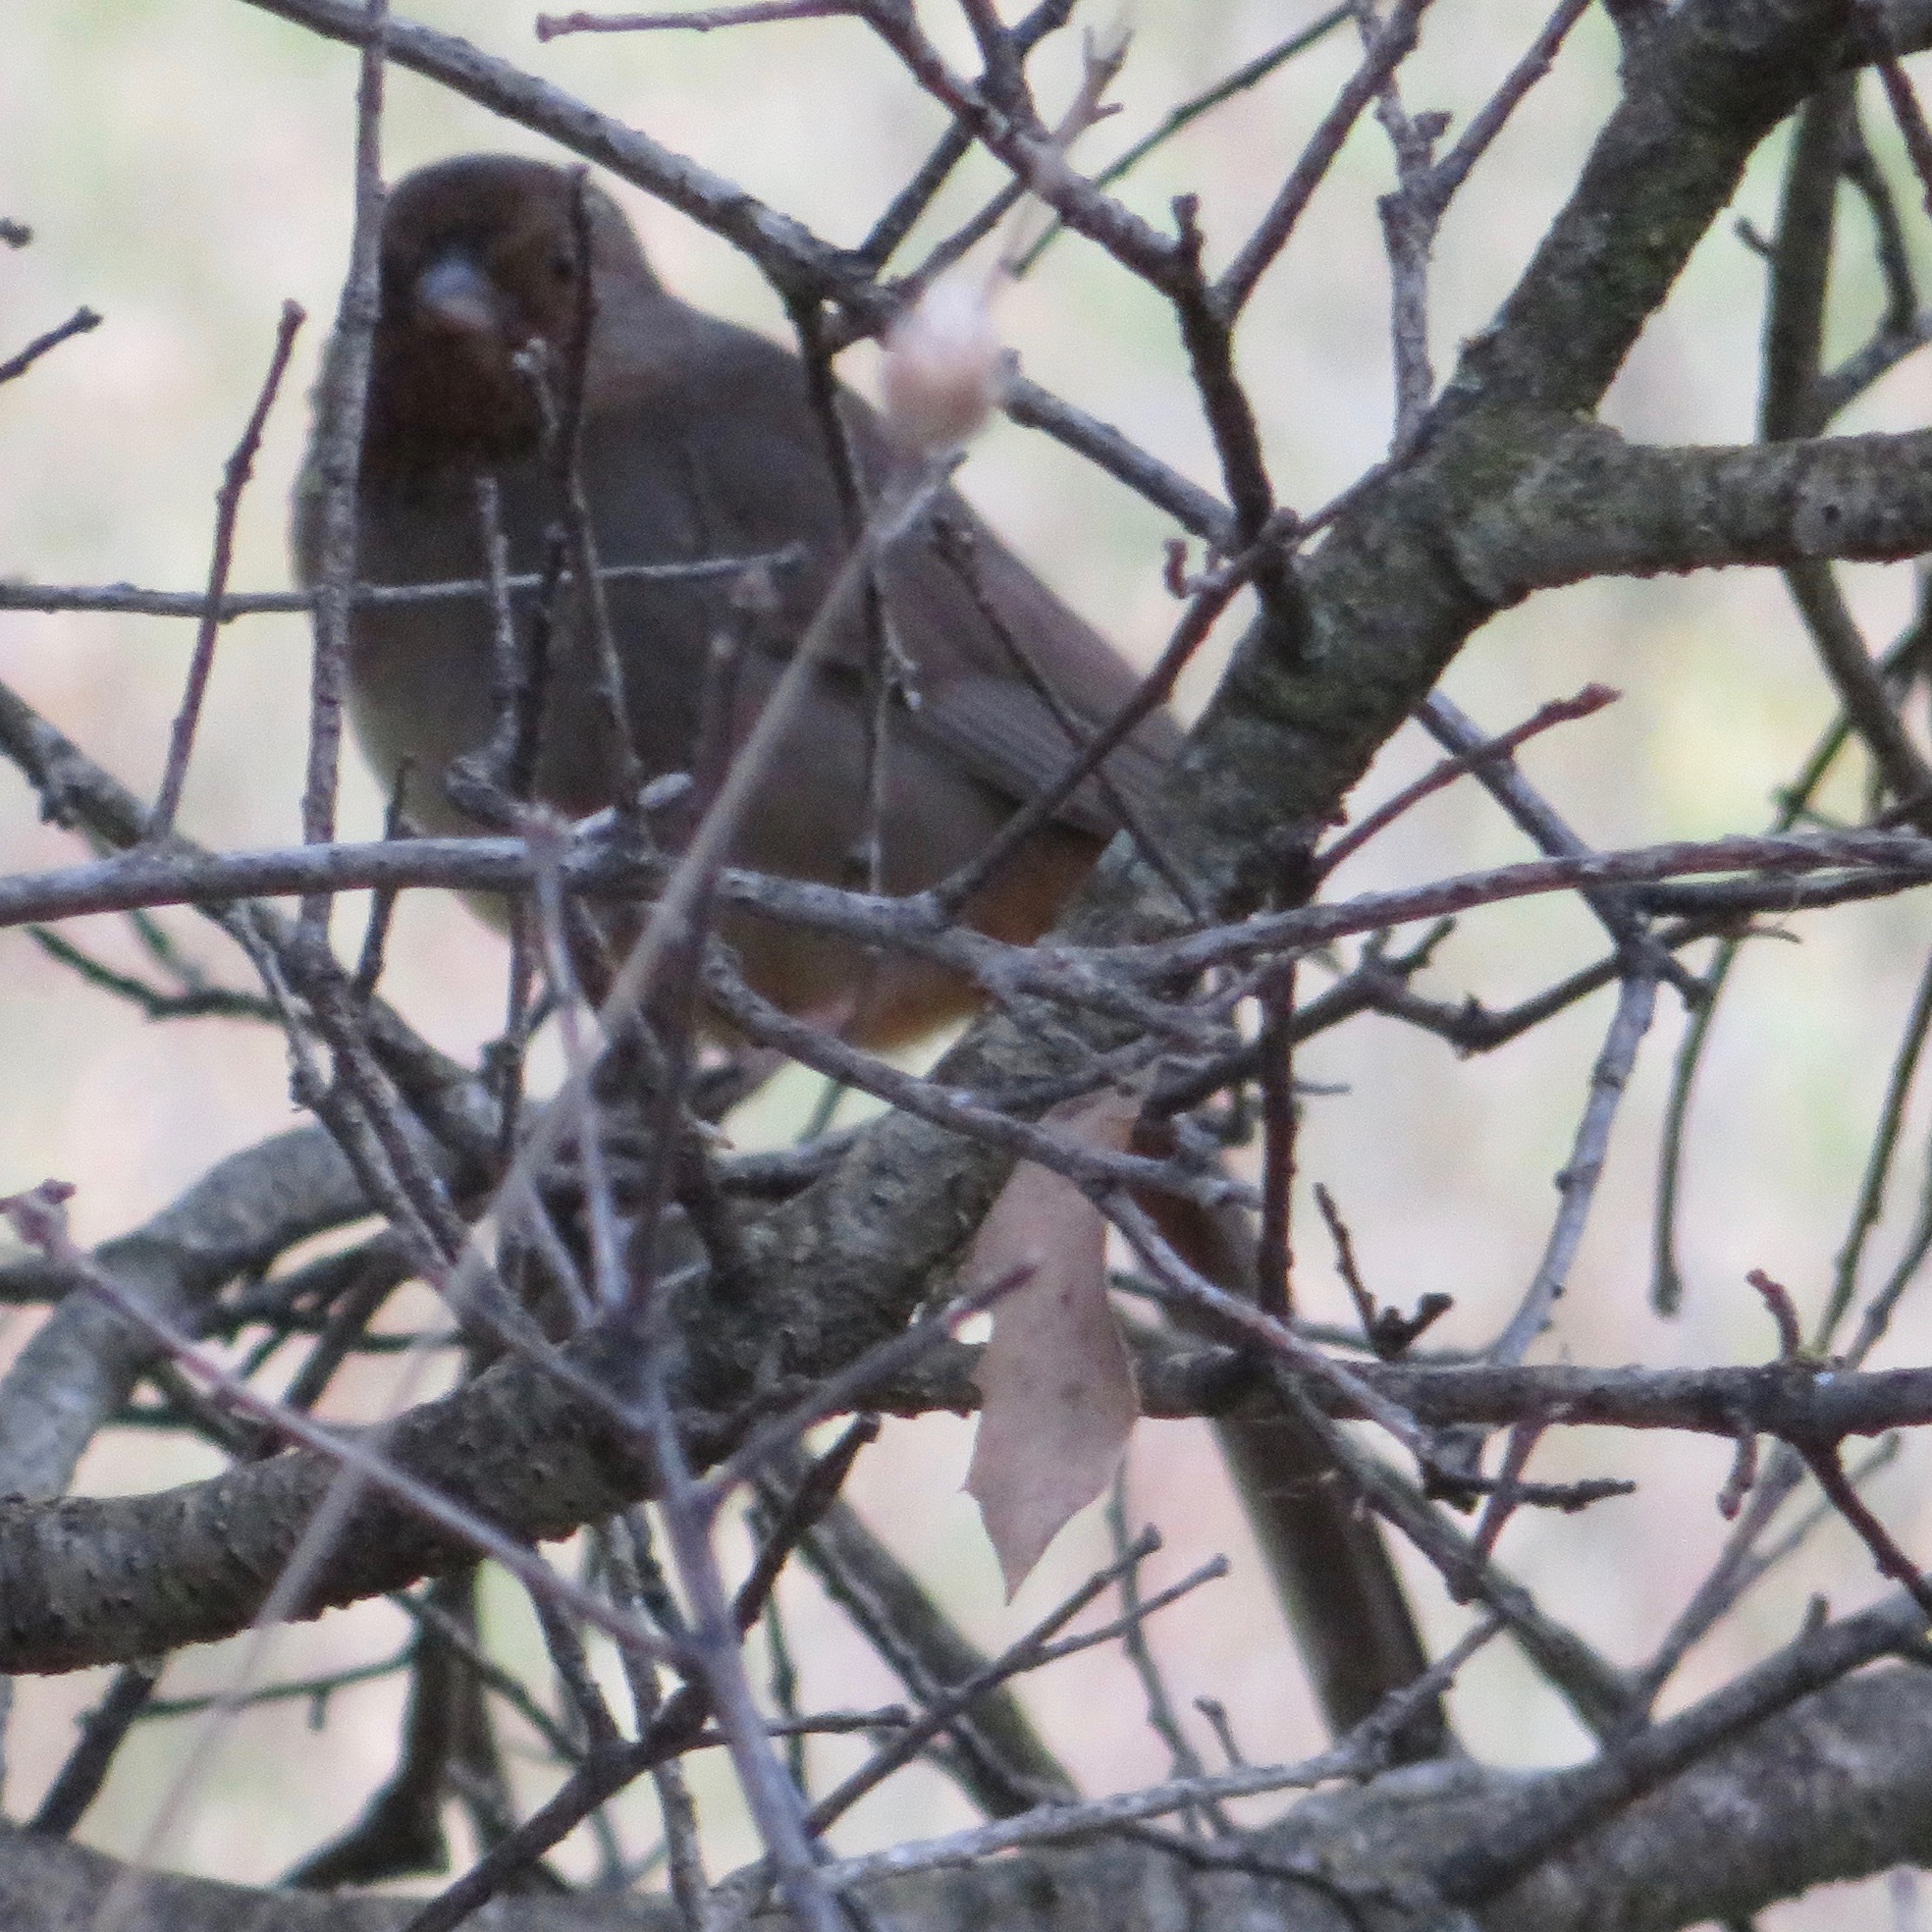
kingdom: Animalia
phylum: Chordata
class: Aves
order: Passeriformes
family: Passerellidae
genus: Melozone
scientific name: Melozone crissalis
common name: California towhee
